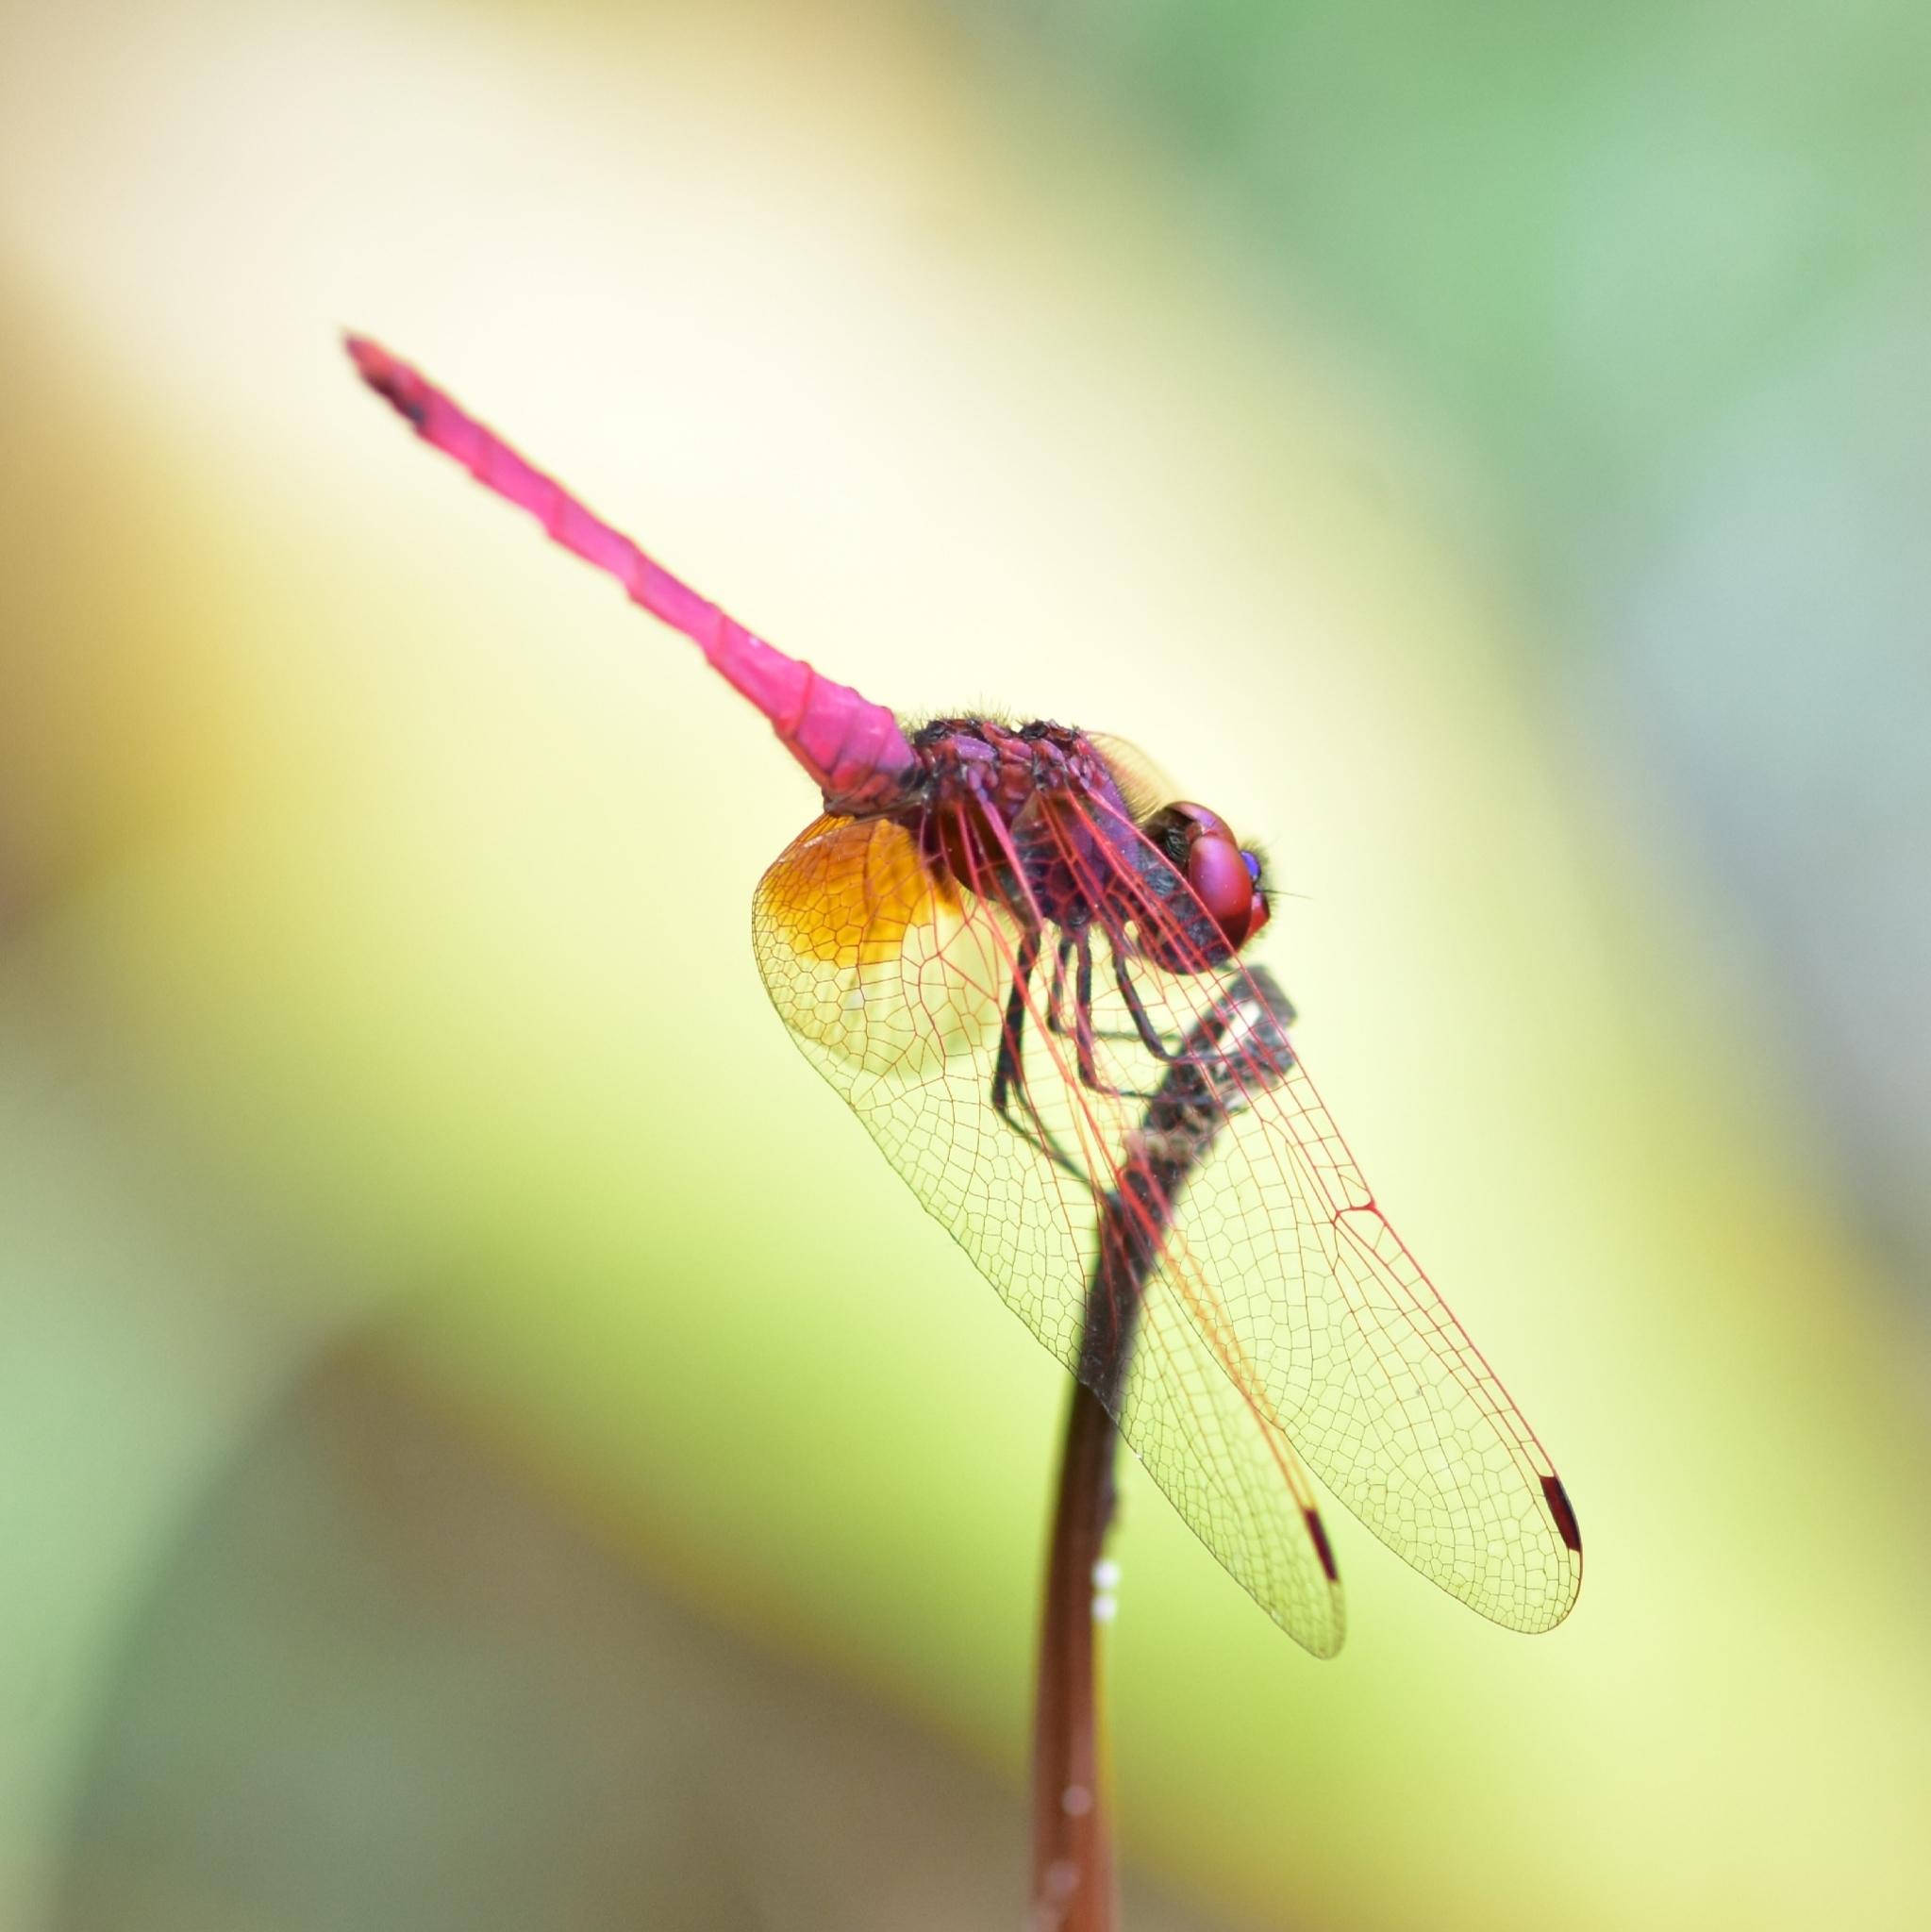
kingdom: Animalia
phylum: Arthropoda
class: Insecta
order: Odonata
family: Libellulidae
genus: Trithemis
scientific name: Trithemis aurora
